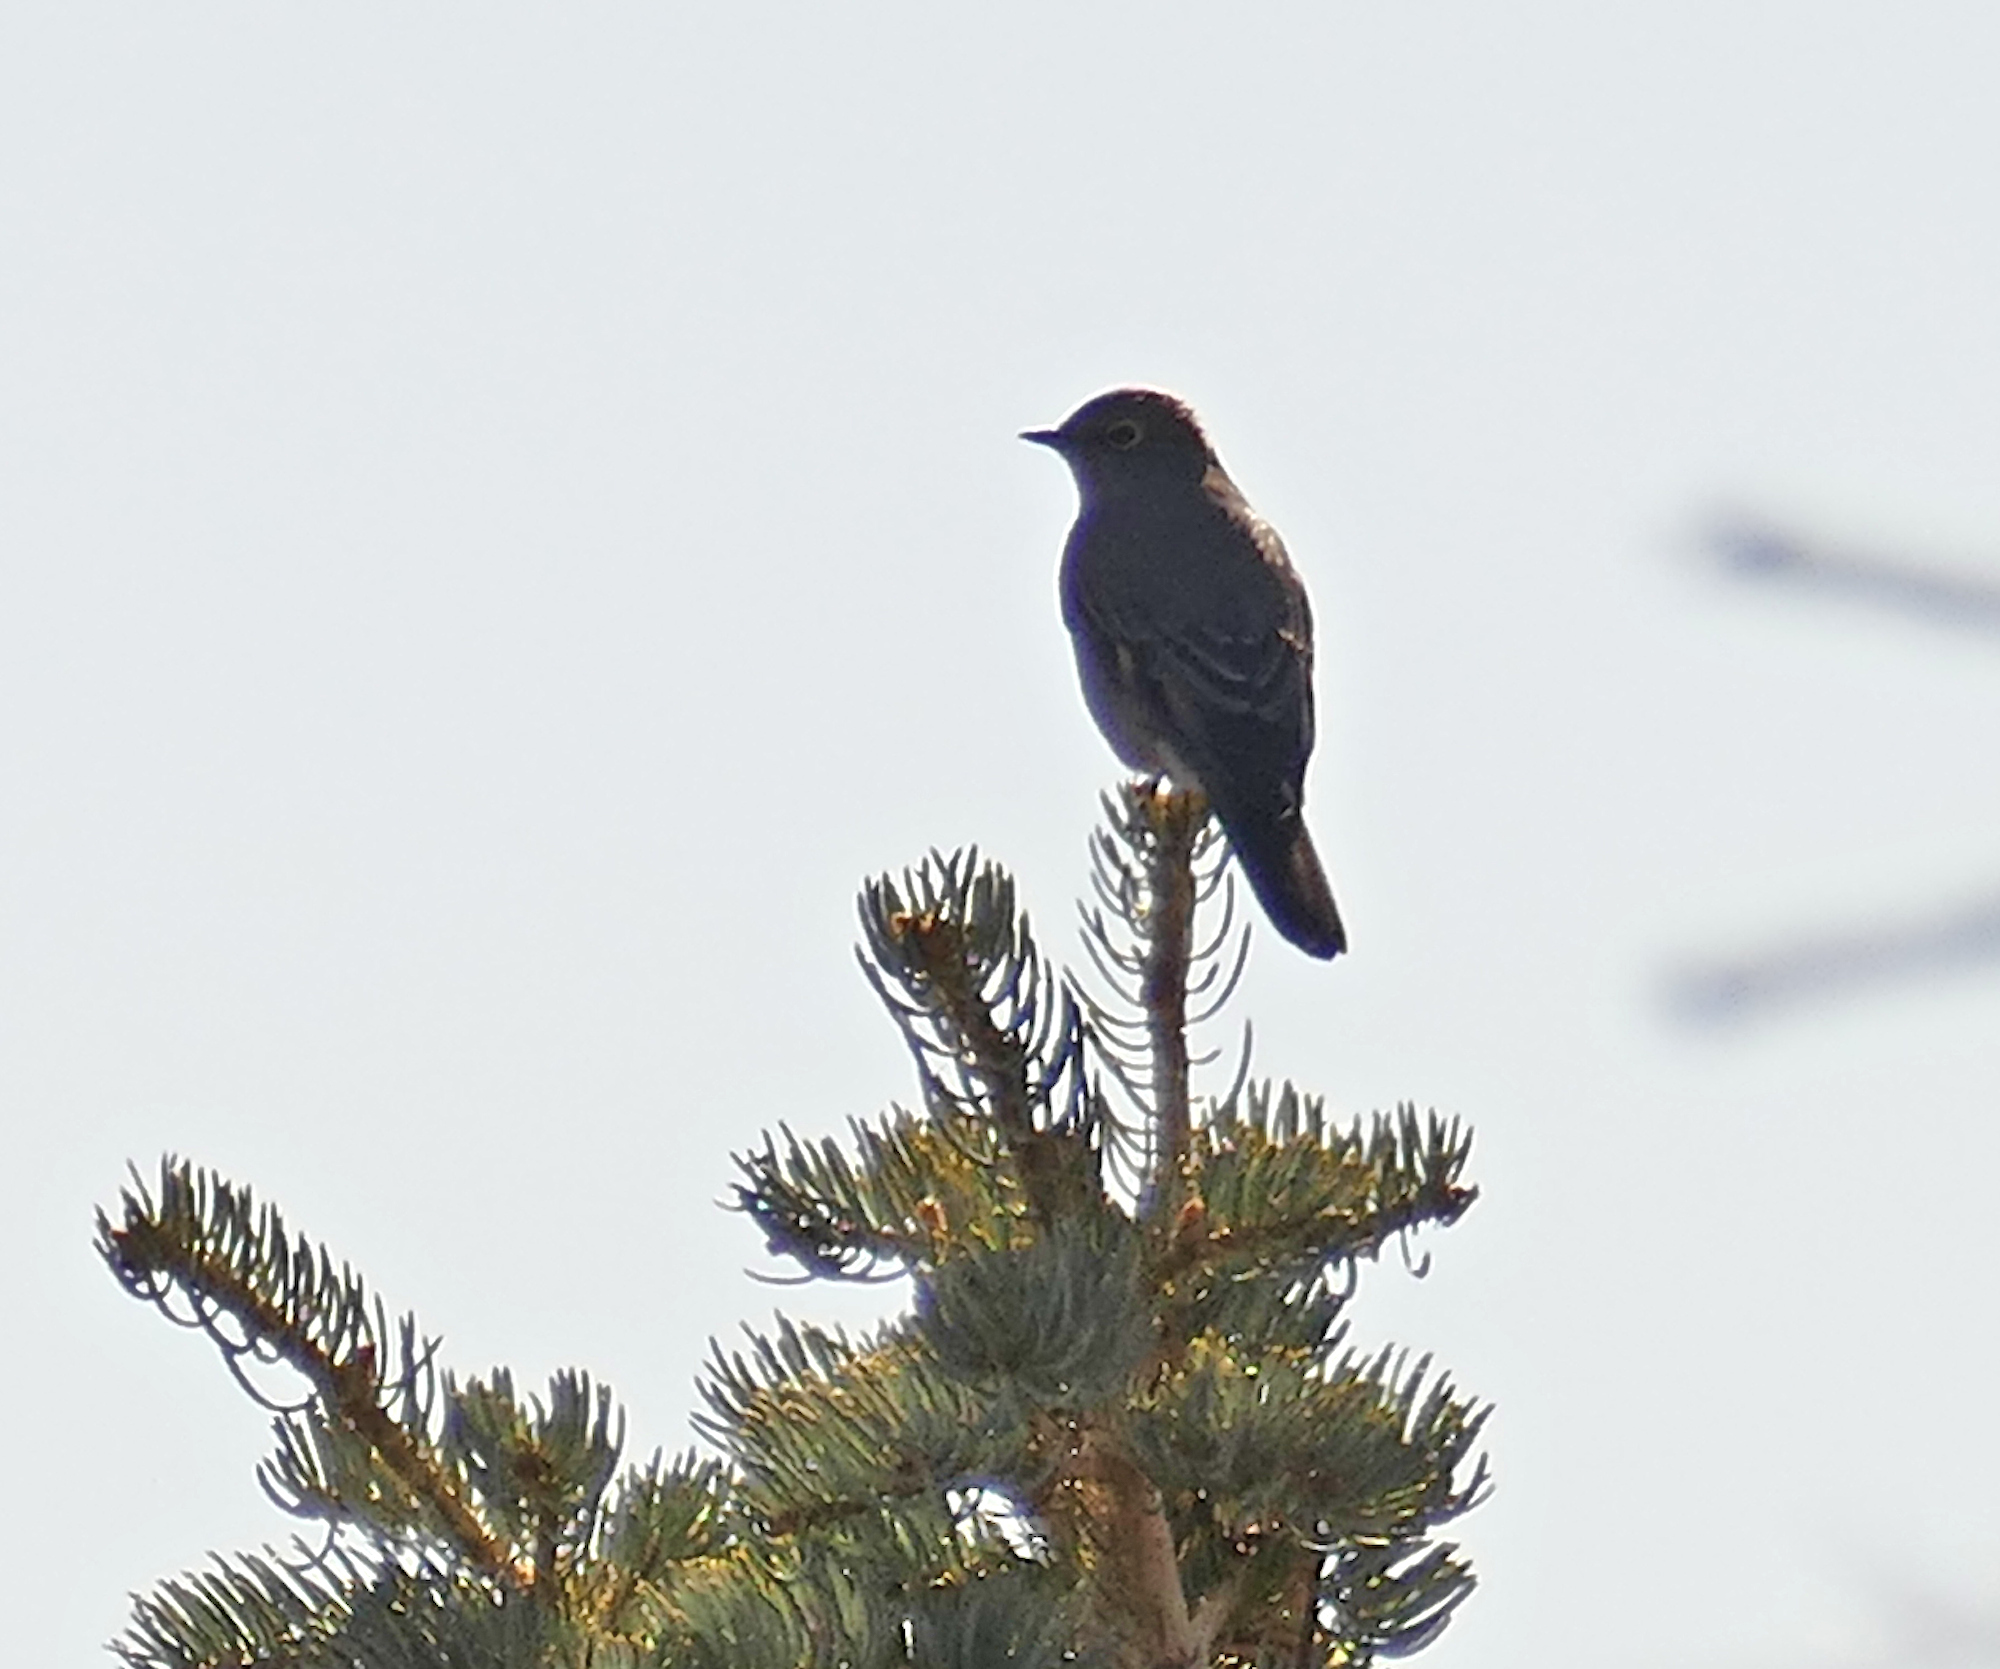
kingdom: Animalia
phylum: Chordata
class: Aves
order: Passeriformes
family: Turdidae
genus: Myadestes
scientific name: Myadestes townsendi
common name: Townsend's solitaire
